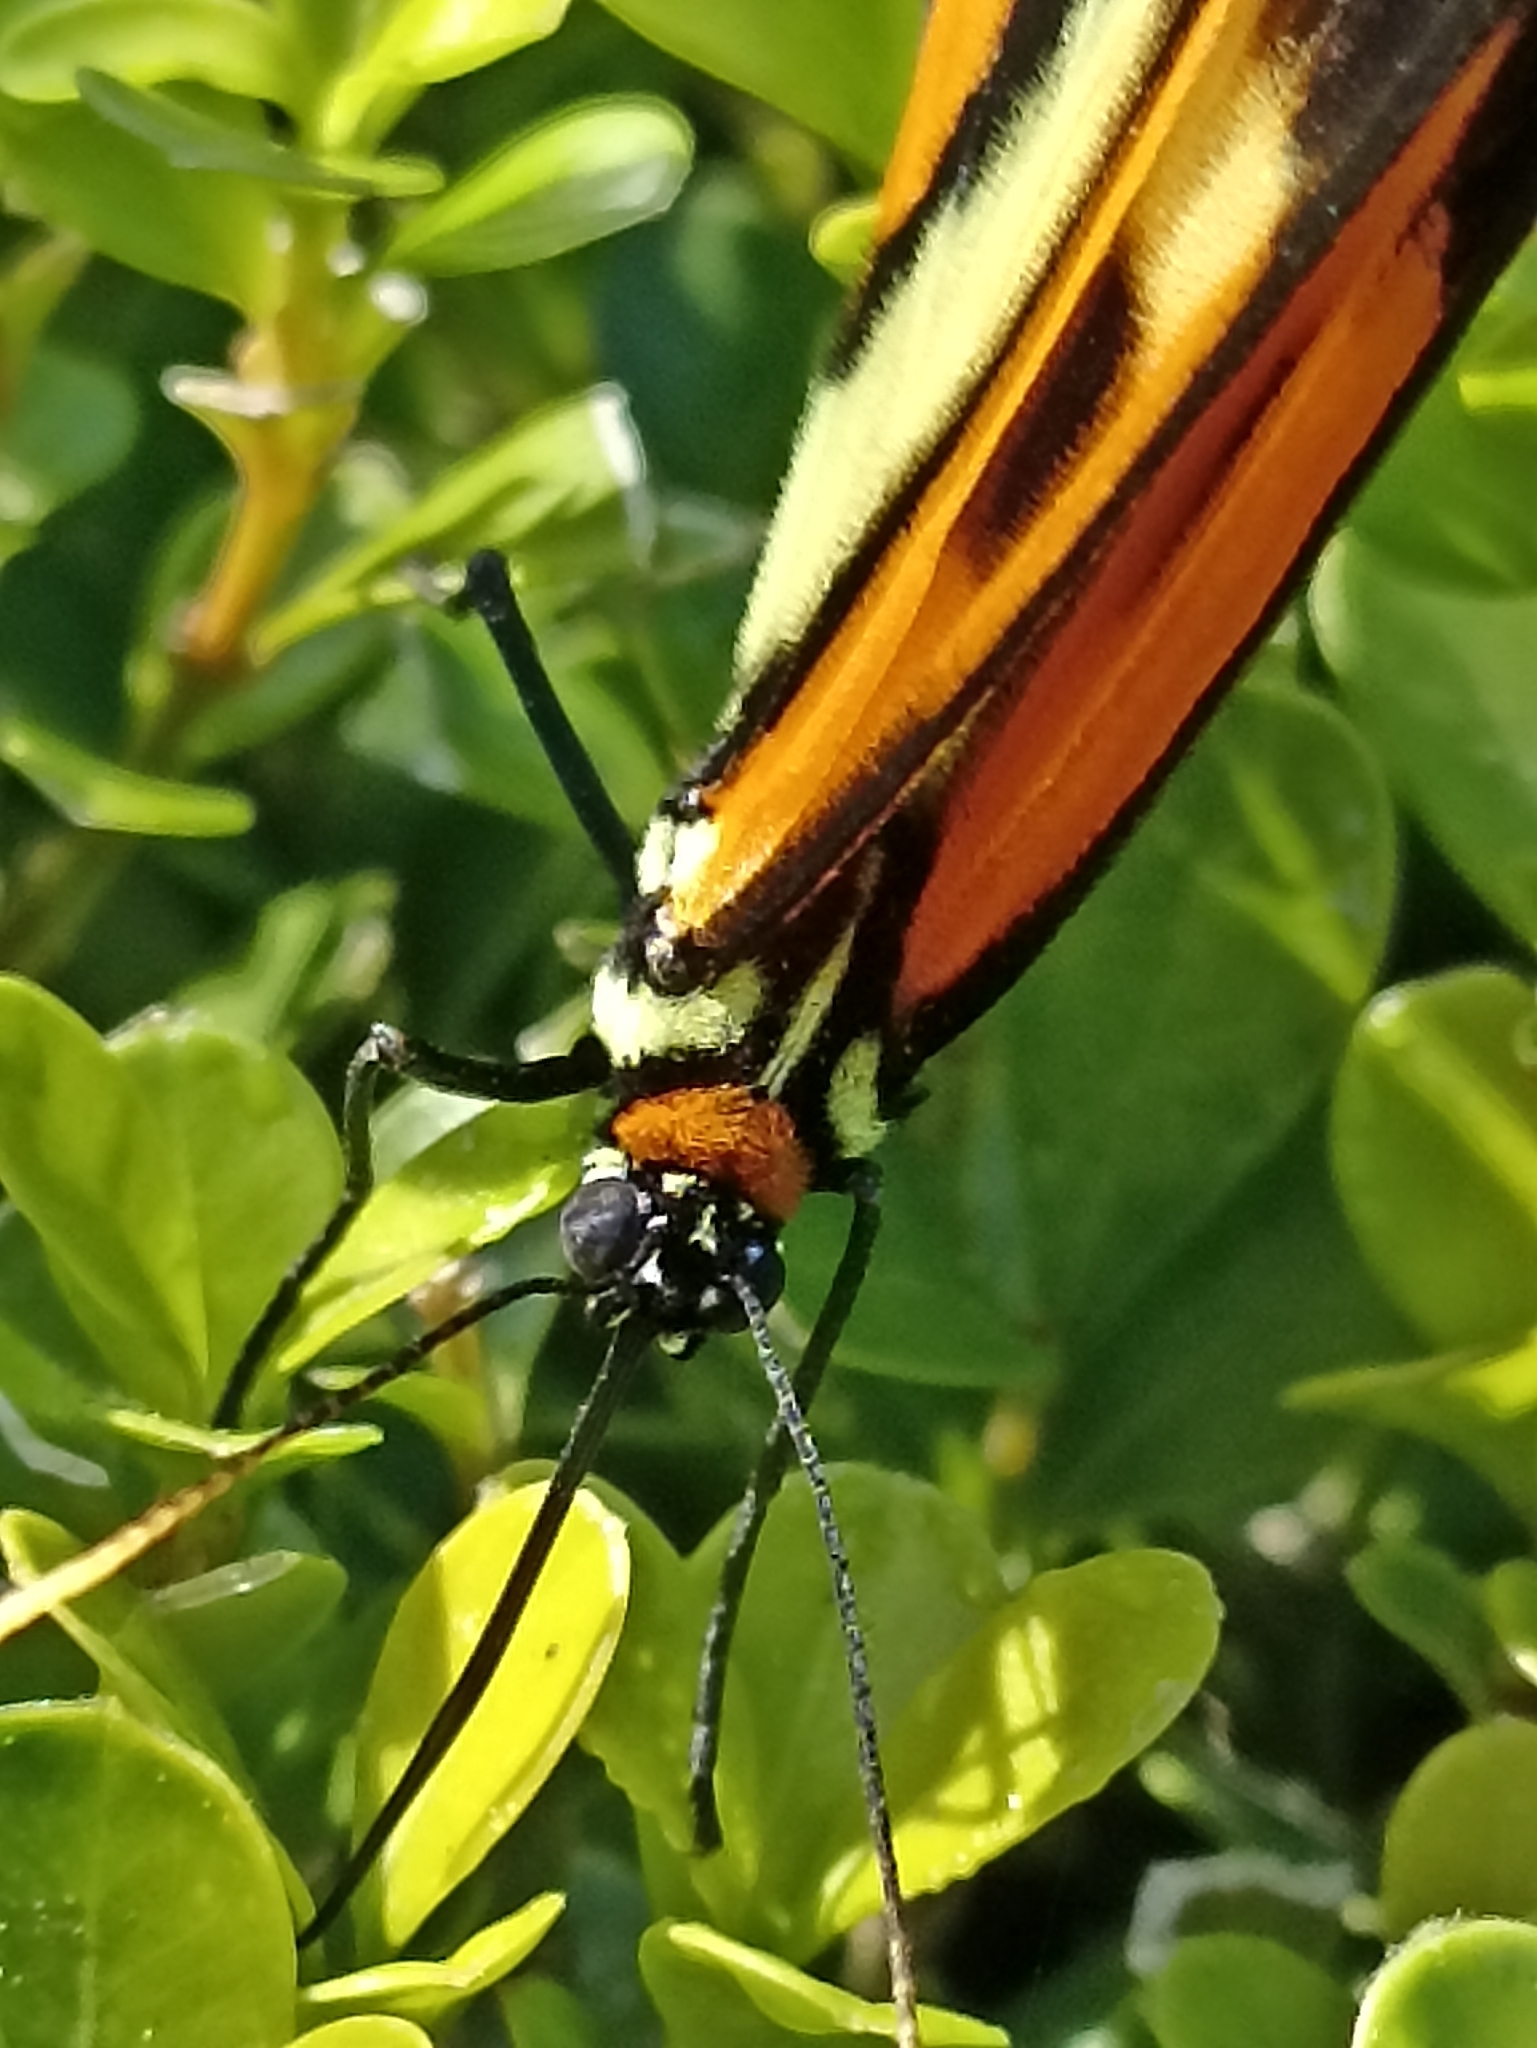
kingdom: Animalia
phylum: Arthropoda
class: Insecta
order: Lepidoptera
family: Nymphalidae
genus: Placidina
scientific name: Placidina euryanassa
